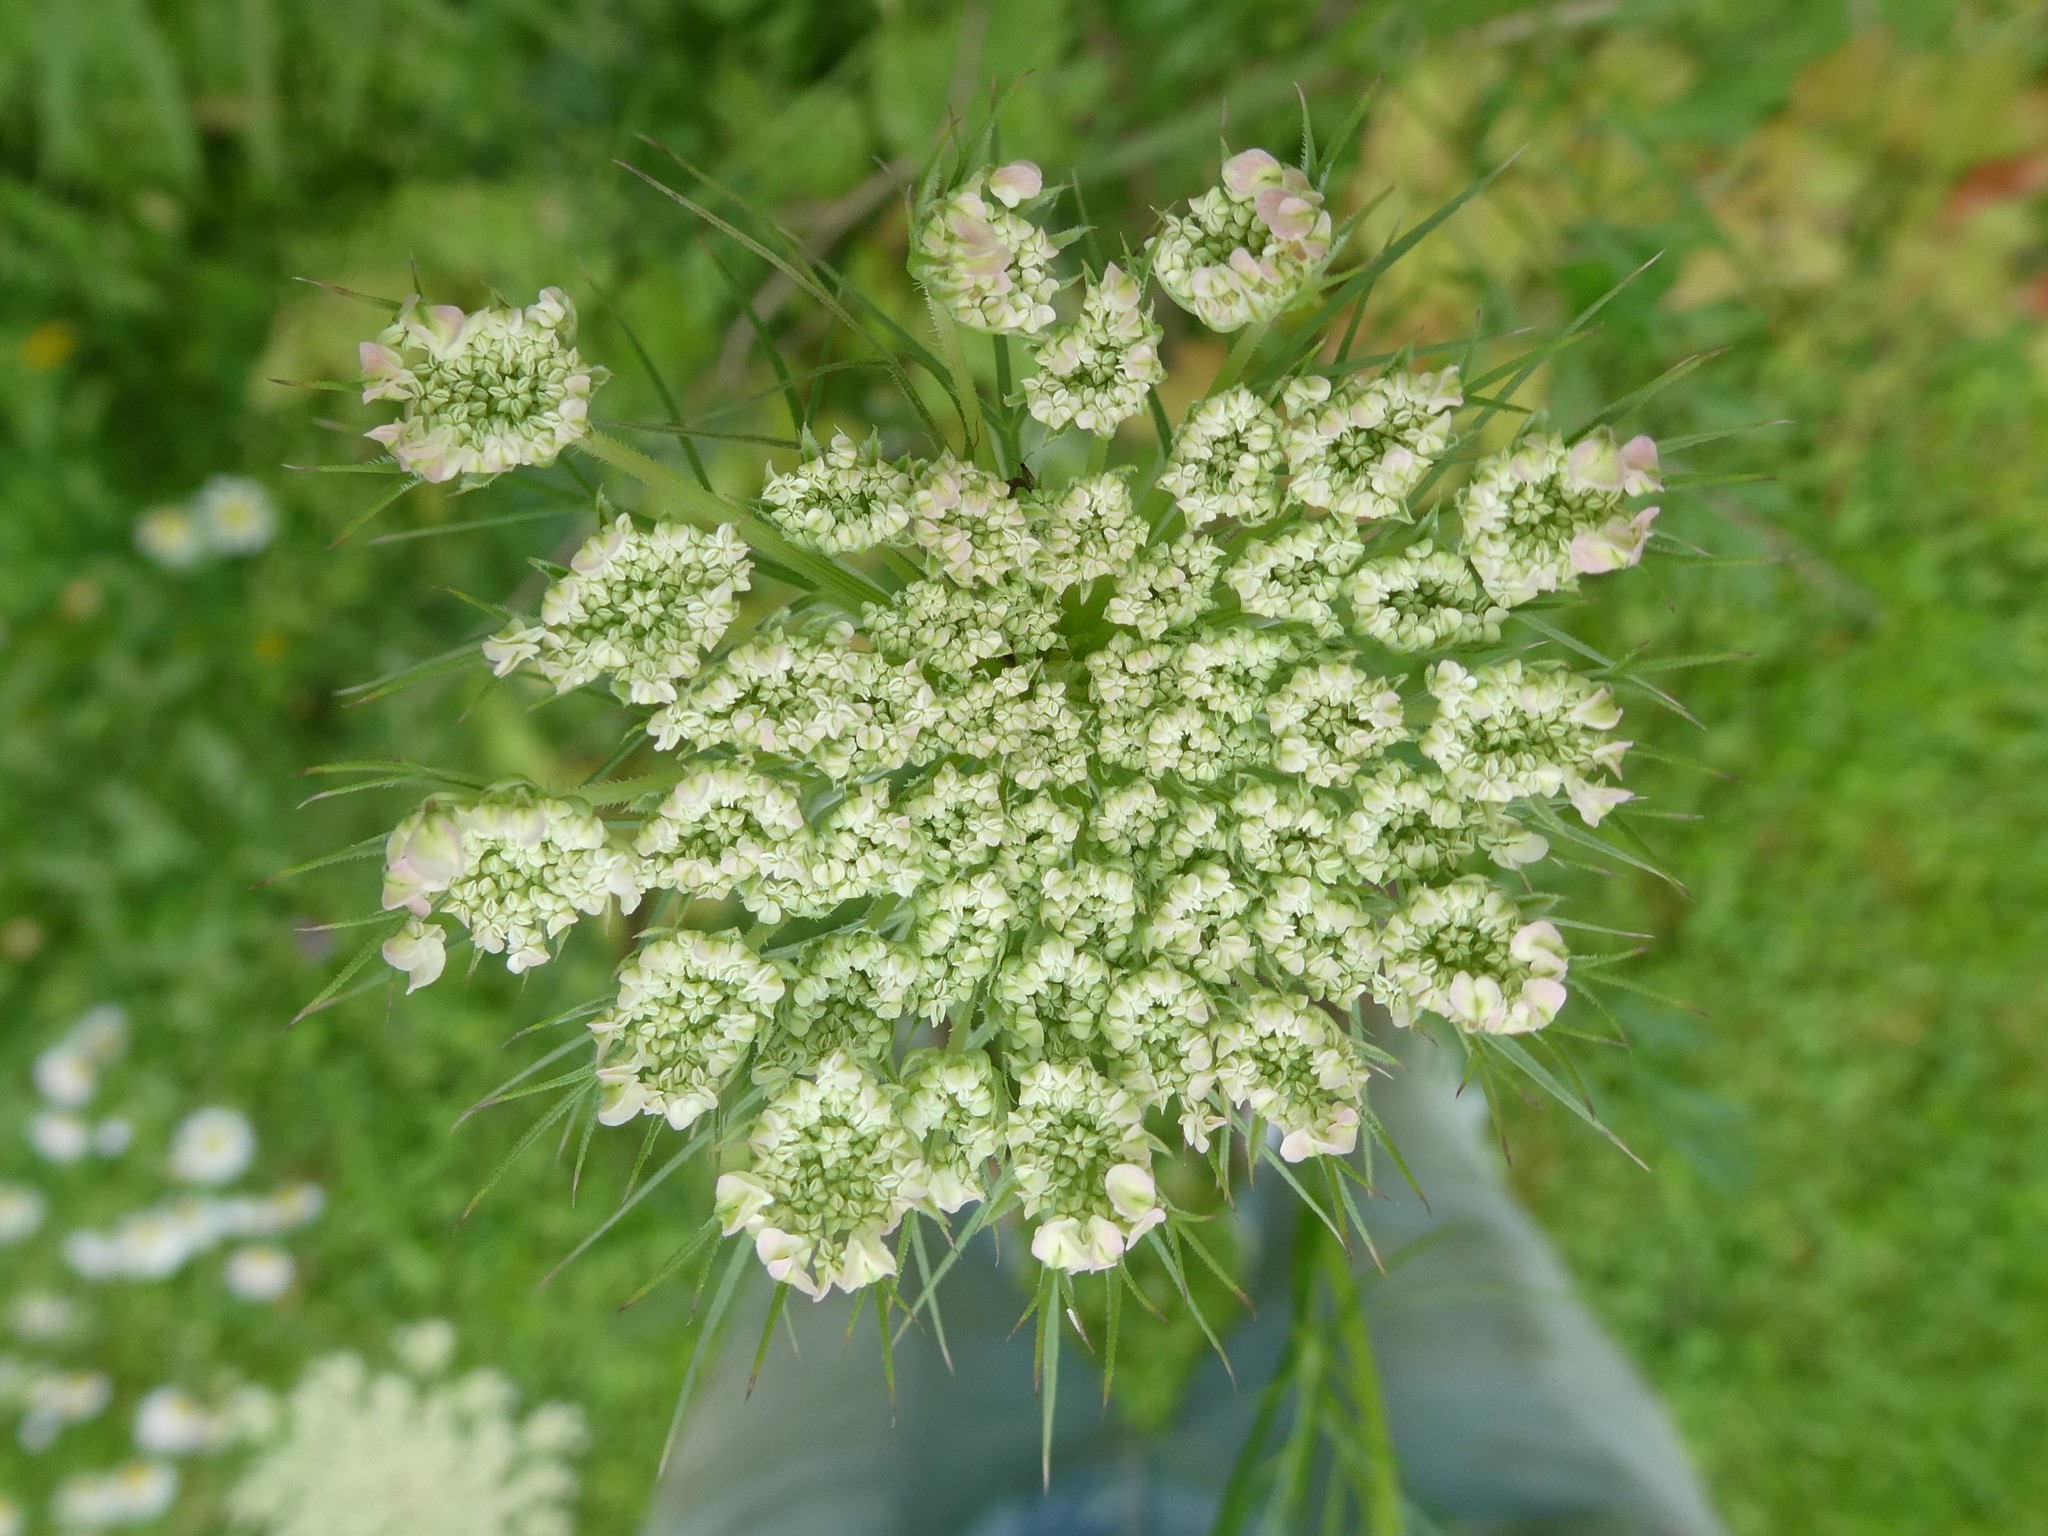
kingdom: Plantae
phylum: Tracheophyta
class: Magnoliopsida
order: Apiales
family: Apiaceae
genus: Daucus
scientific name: Daucus carota
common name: Wild carrot
